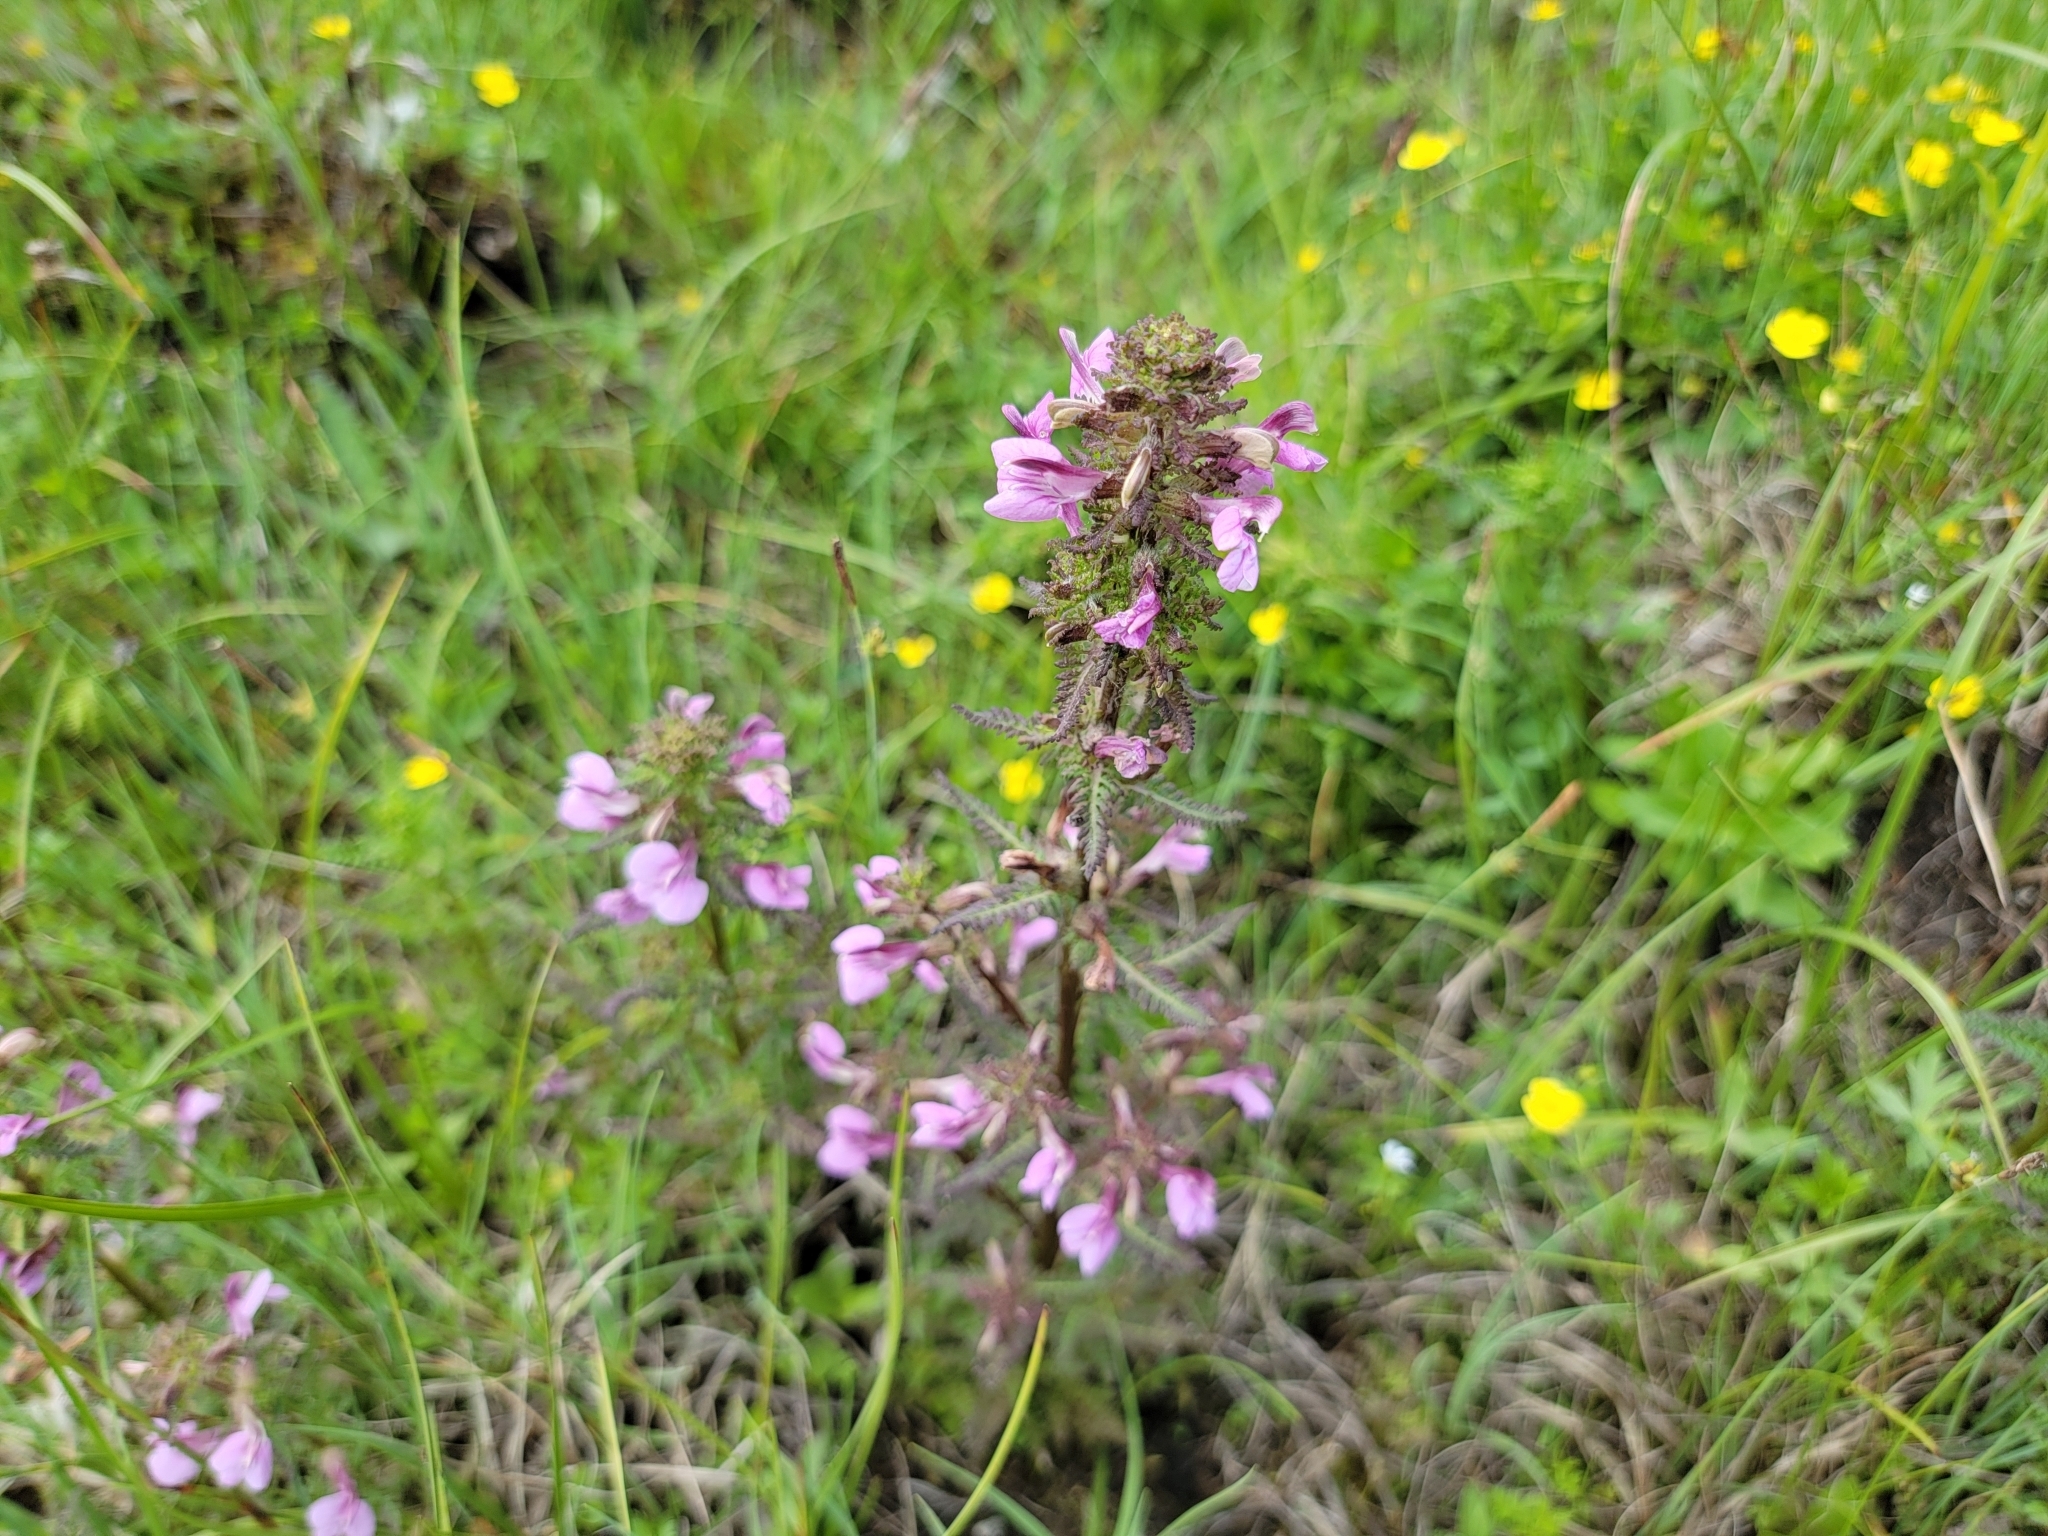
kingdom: Plantae
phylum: Tracheophyta
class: Magnoliopsida
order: Lamiales
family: Orobanchaceae
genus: Pedicularis
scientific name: Pedicularis palustris
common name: Marsh lousewort
